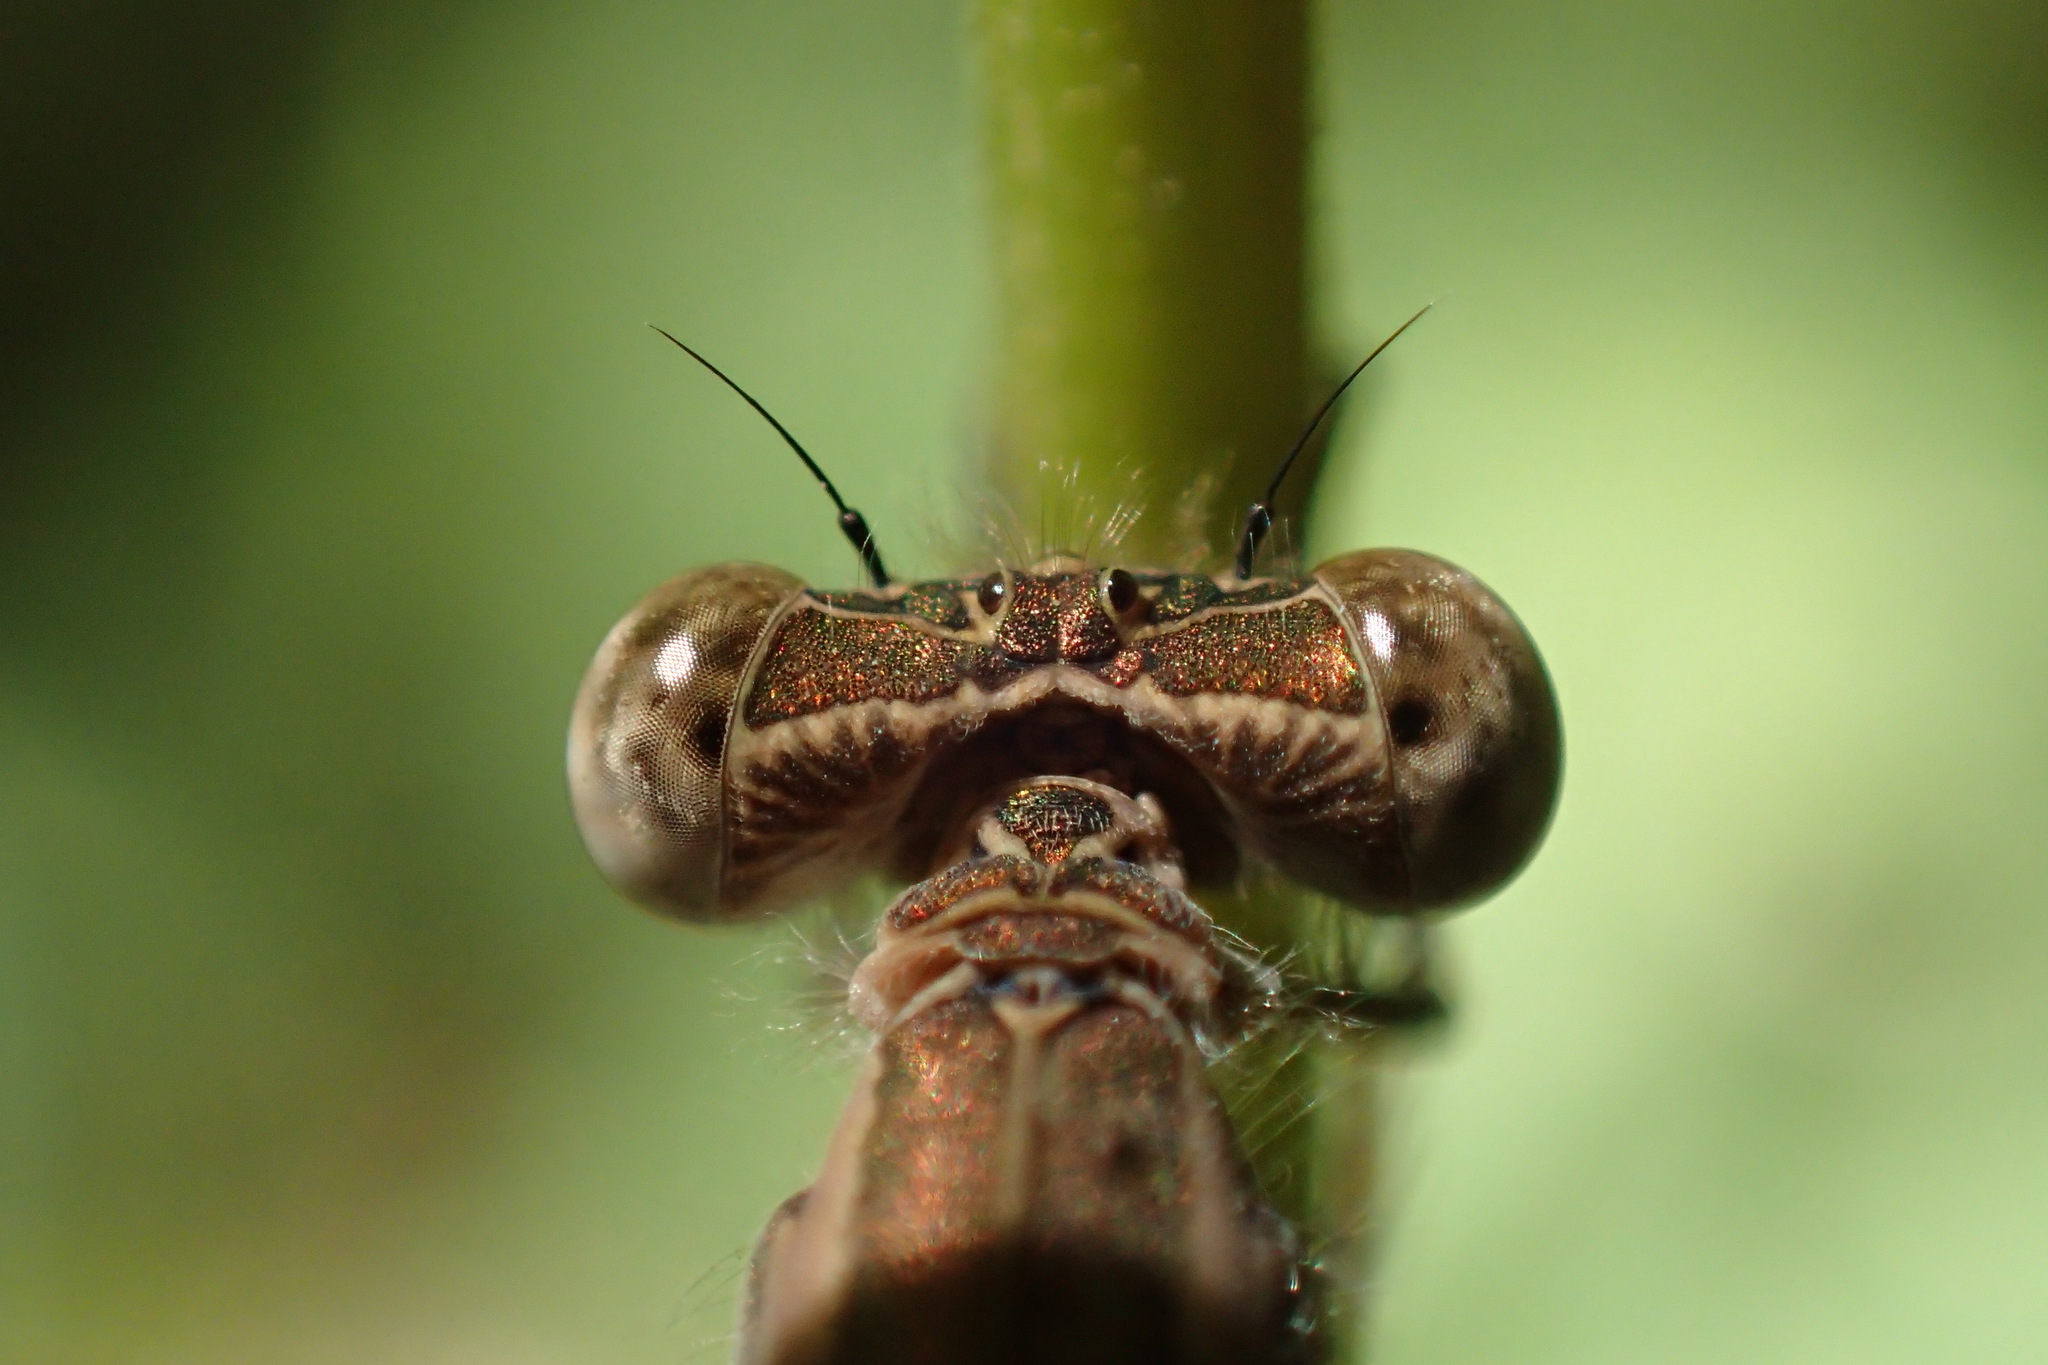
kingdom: Animalia
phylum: Arthropoda
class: Insecta
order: Odonata
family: Lestidae
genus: Sympecma
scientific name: Sympecma paedisca
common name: Siberian winter damsel
